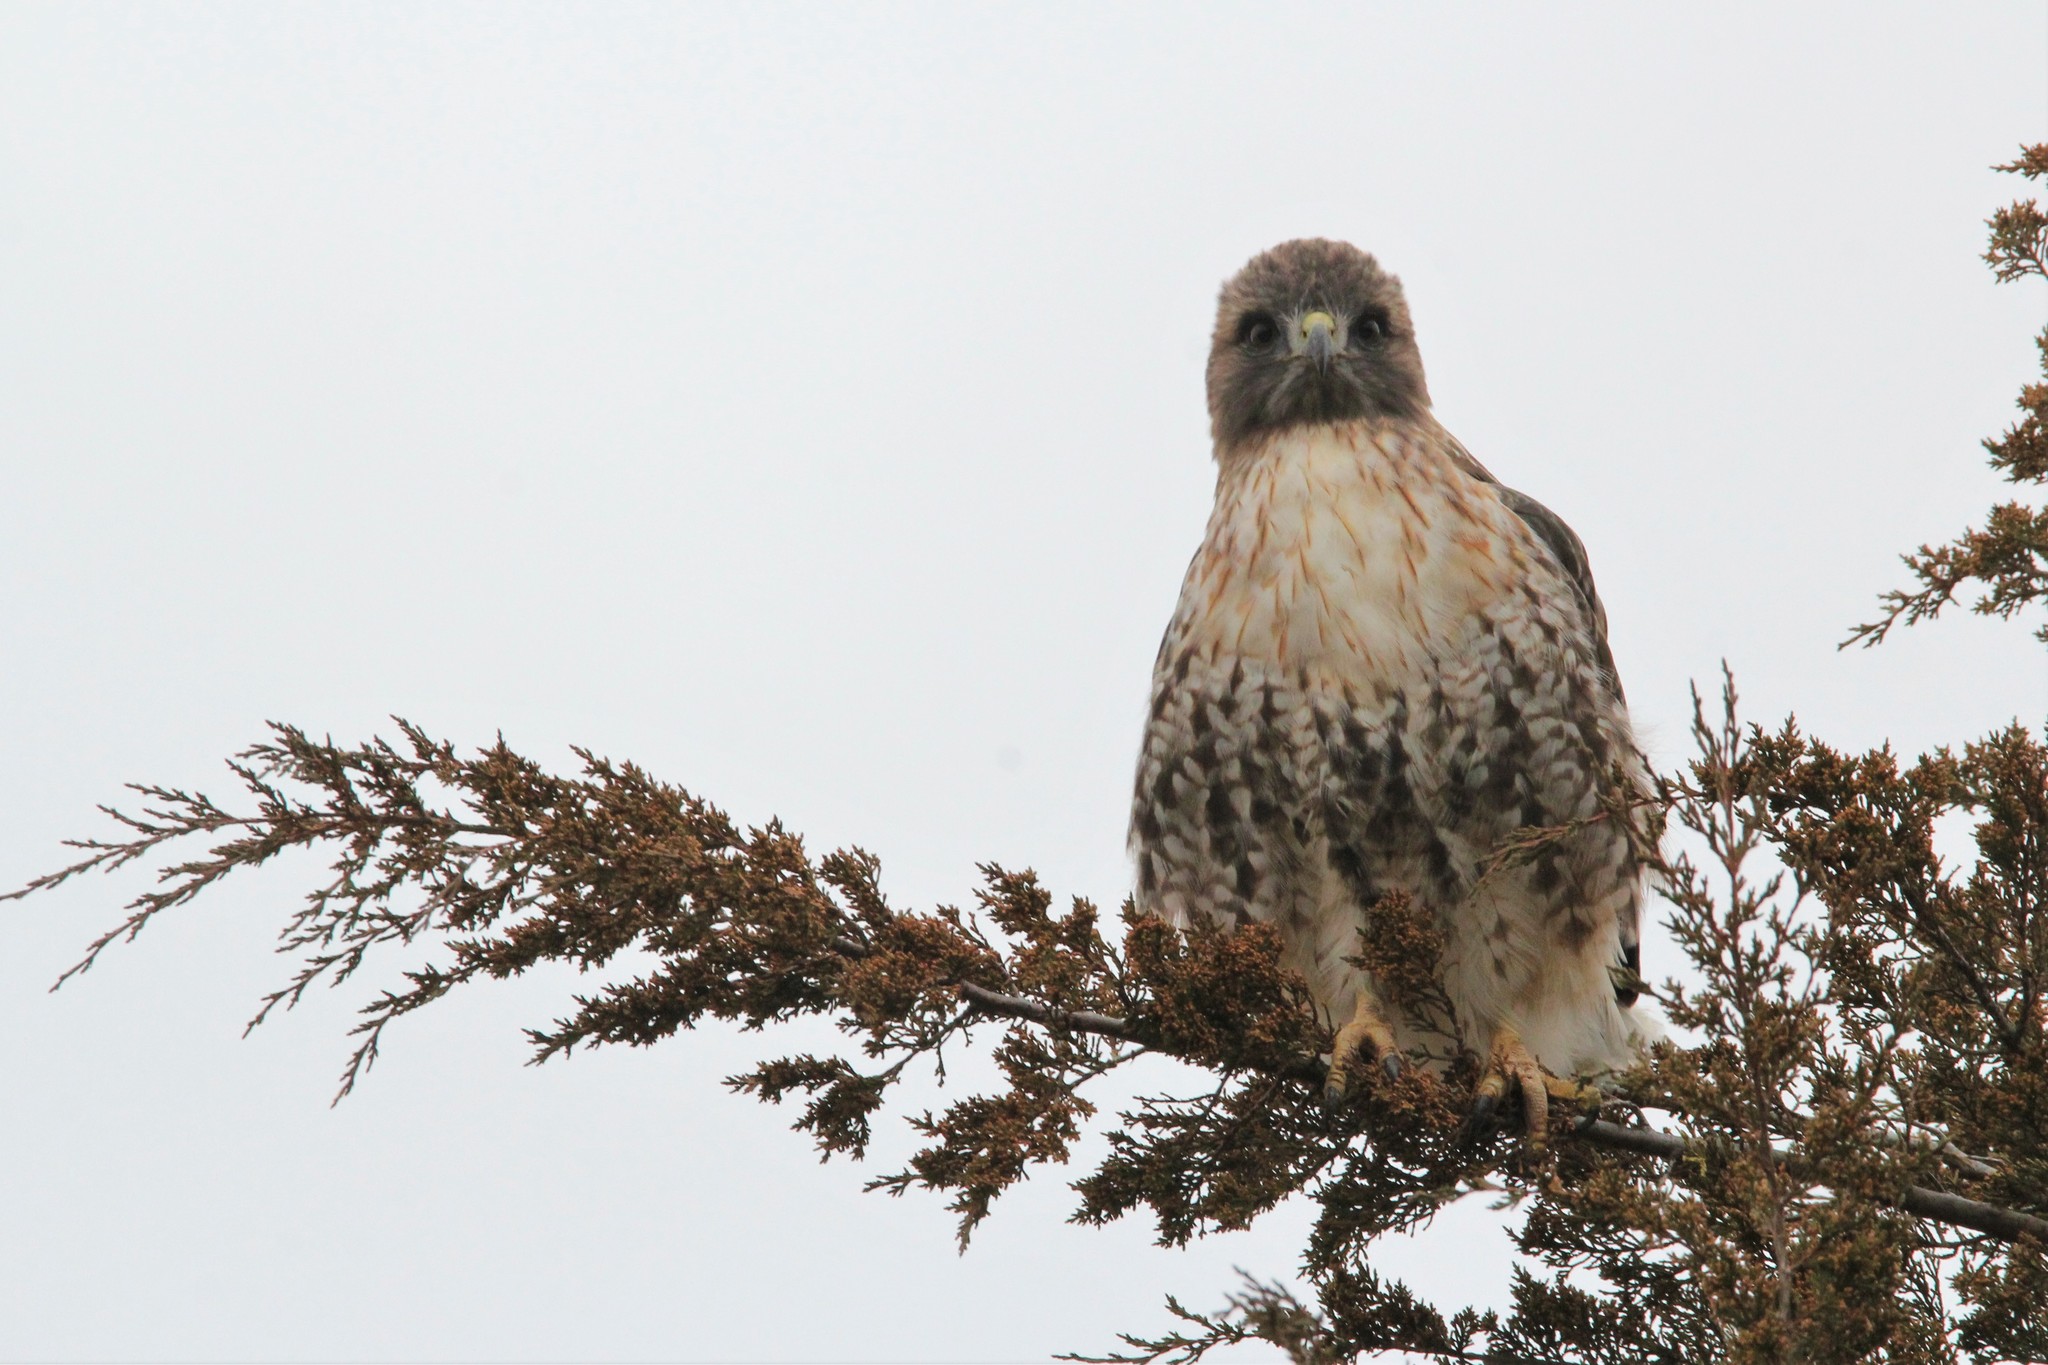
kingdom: Animalia
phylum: Chordata
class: Aves
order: Accipitriformes
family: Accipitridae
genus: Buteo
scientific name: Buteo jamaicensis
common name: Red-tailed hawk
